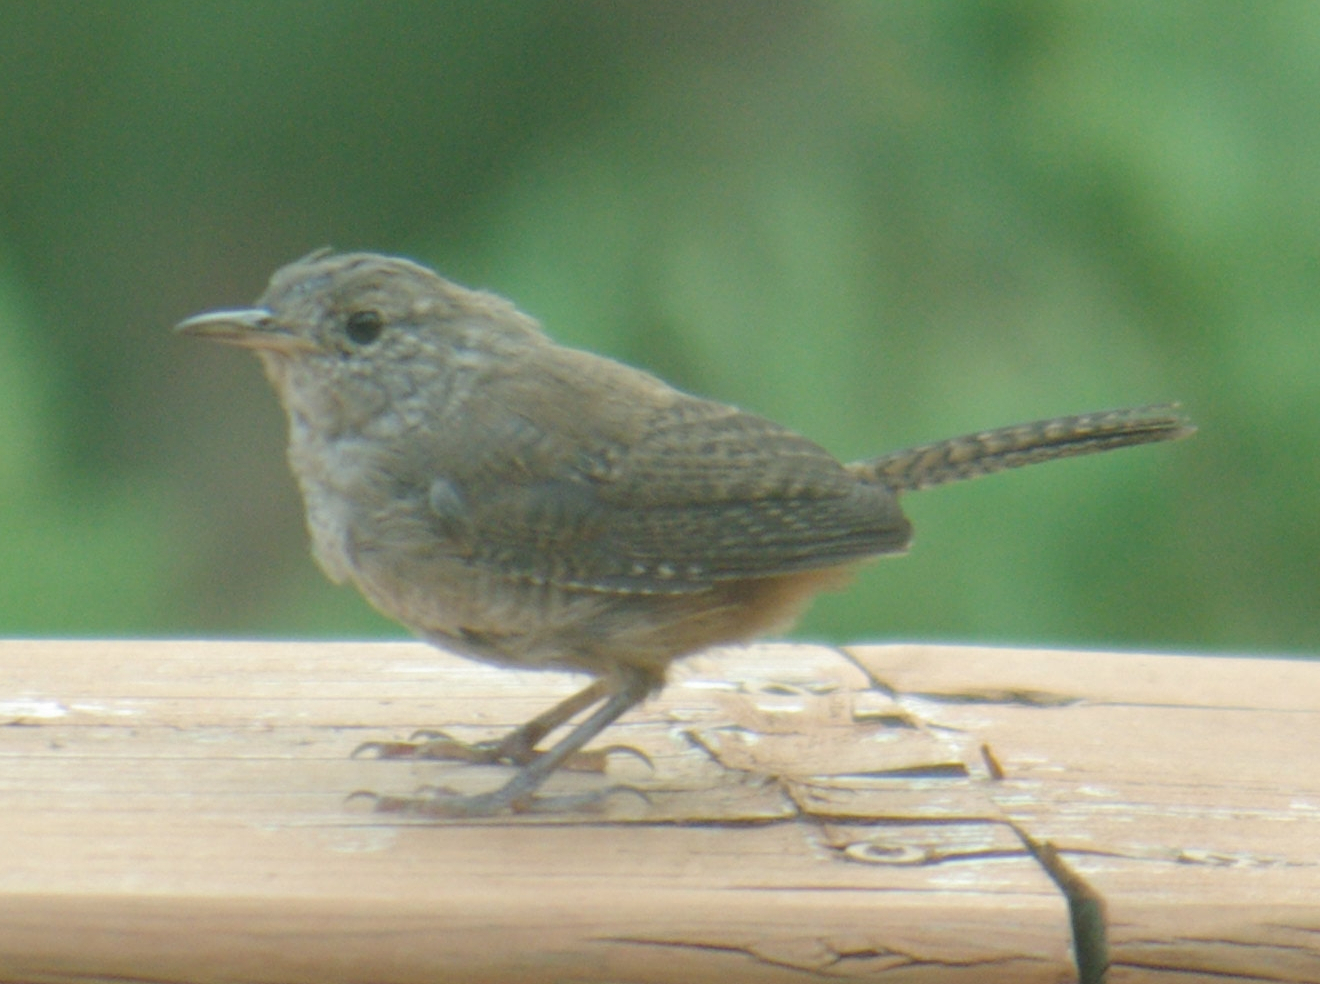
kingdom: Animalia
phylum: Chordata
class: Aves
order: Passeriformes
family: Troglodytidae
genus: Troglodytes
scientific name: Troglodytes aedon
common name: House wren
